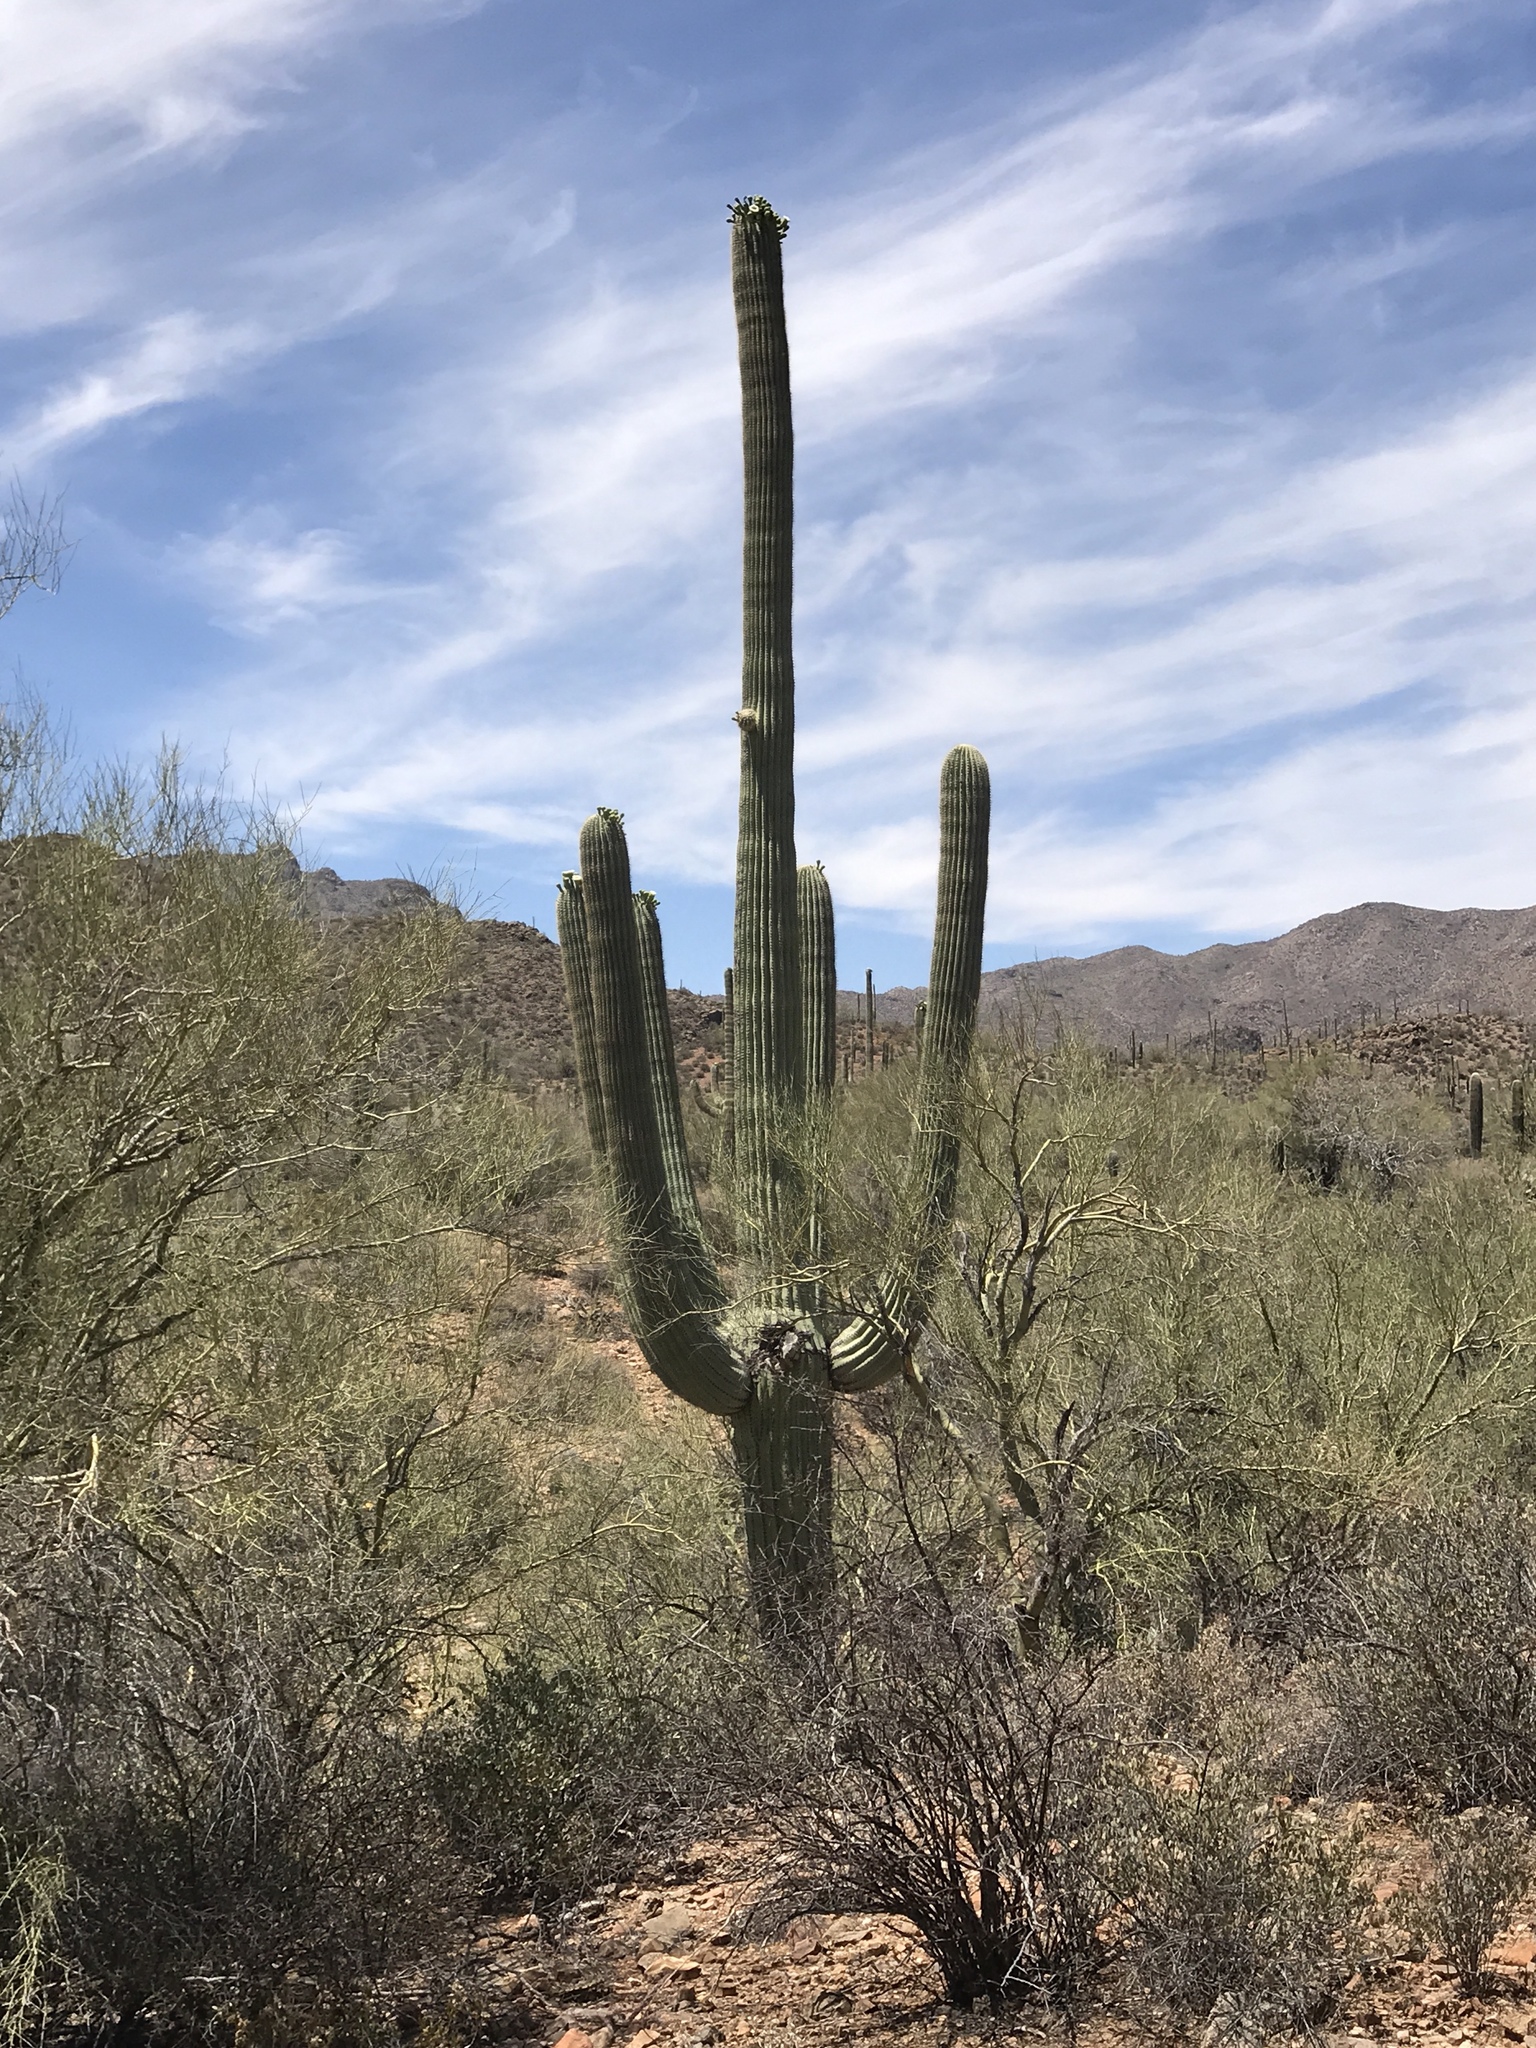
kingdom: Plantae
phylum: Tracheophyta
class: Magnoliopsida
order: Caryophyllales
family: Cactaceae
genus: Carnegiea
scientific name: Carnegiea gigantea
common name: Saguaro
